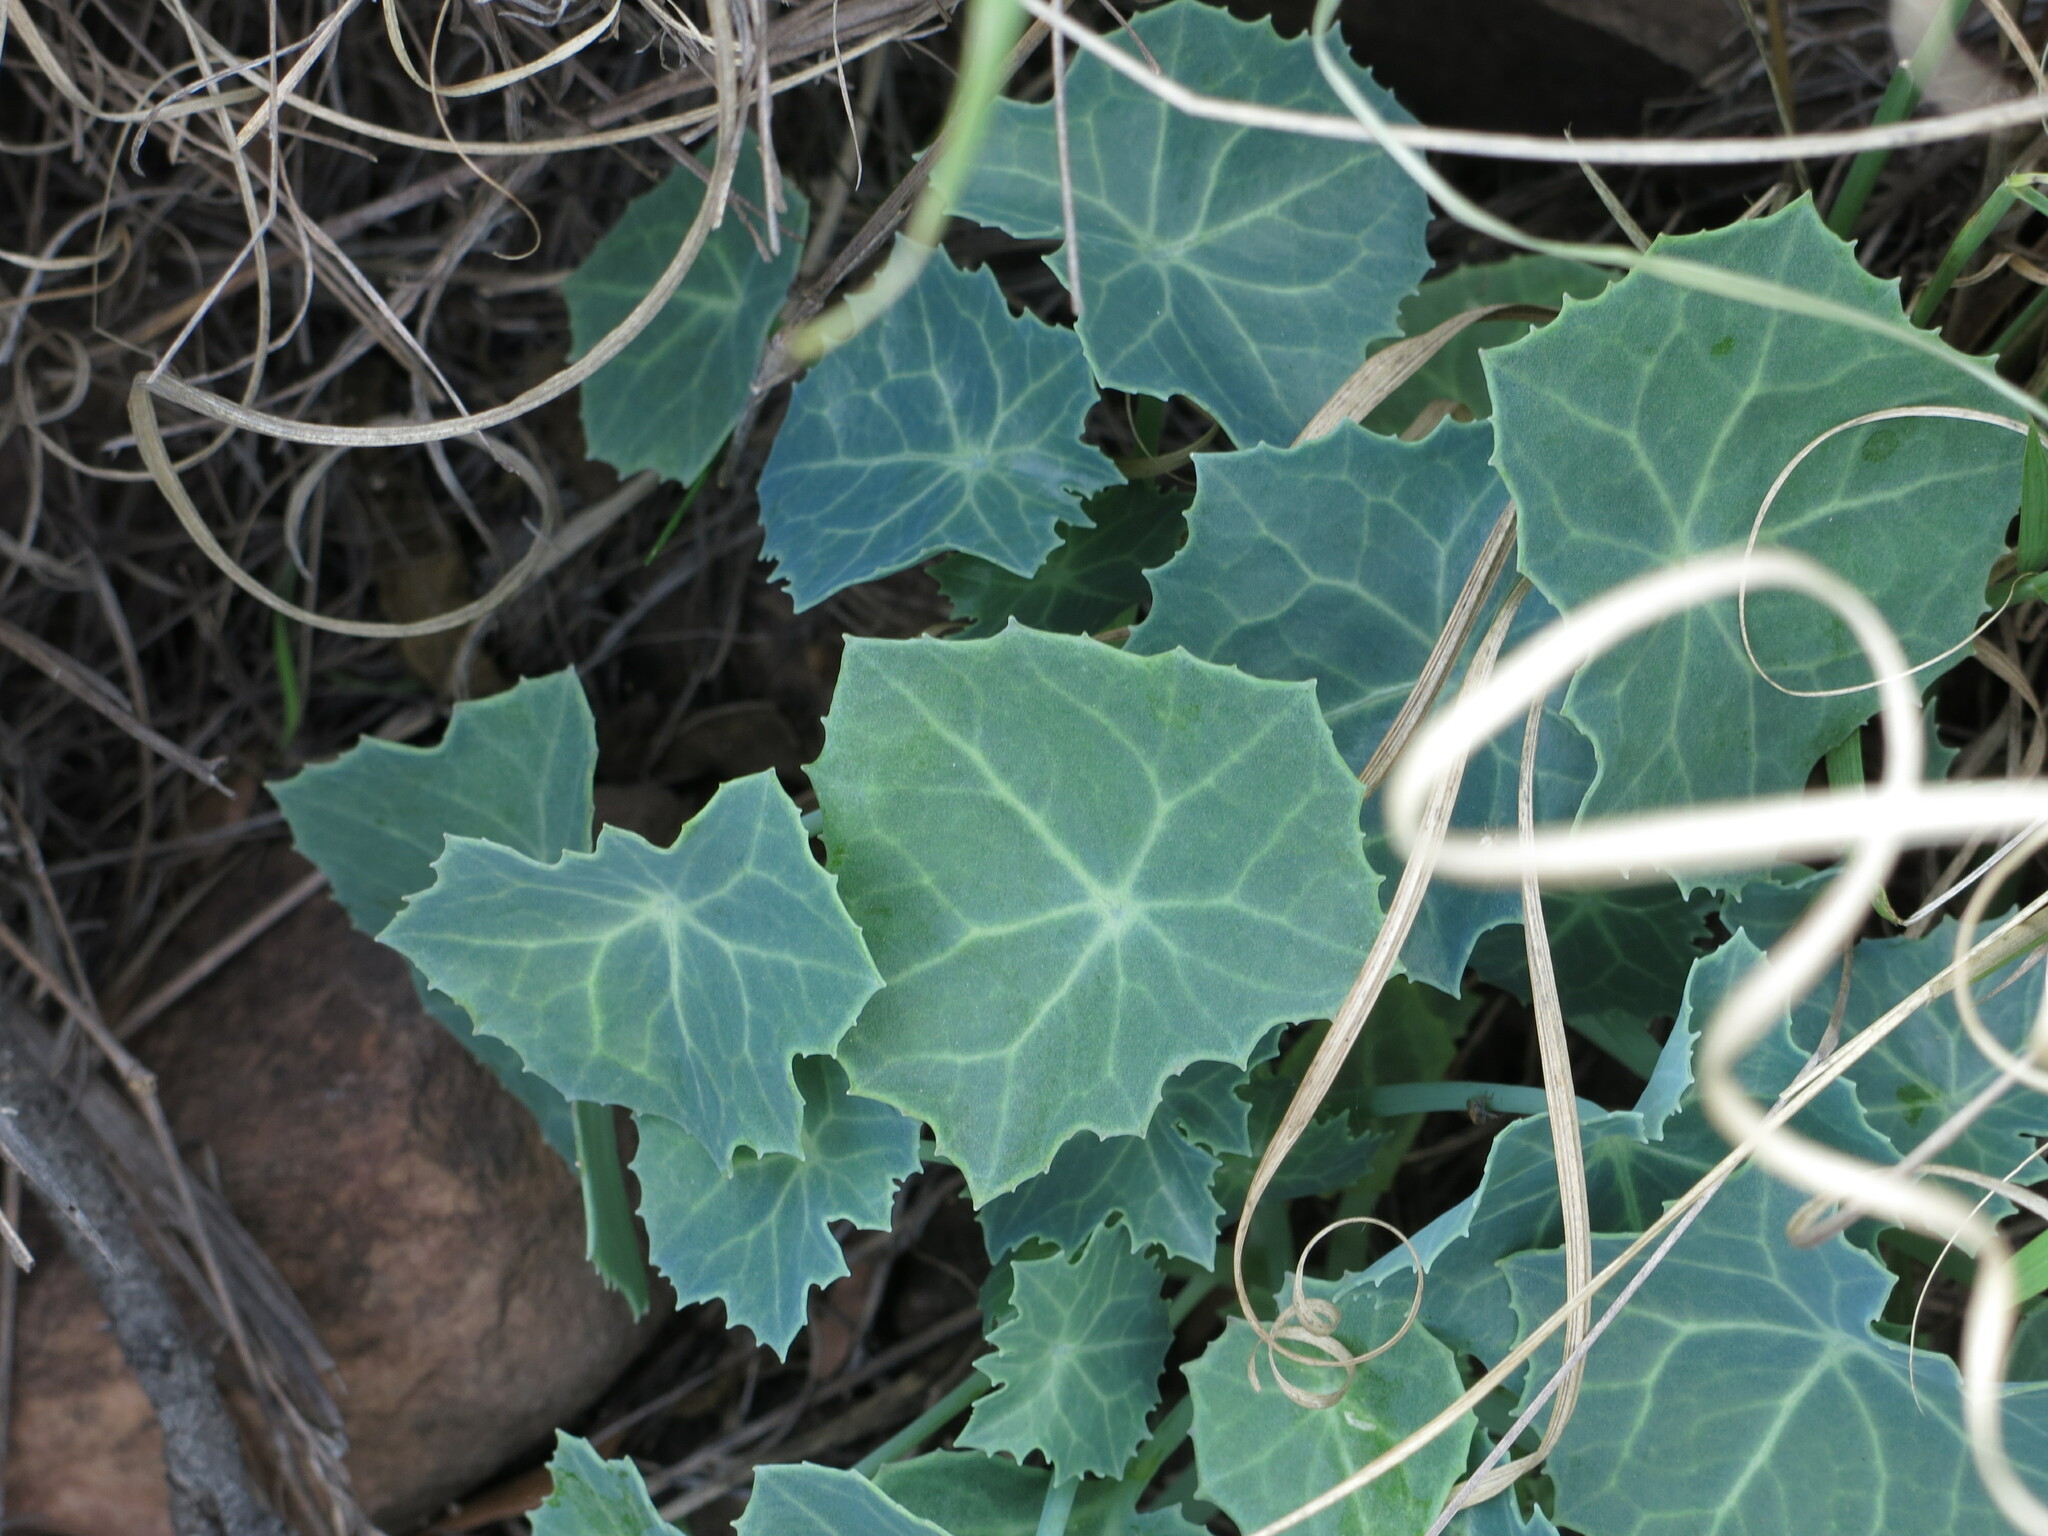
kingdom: Plantae
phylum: Tracheophyta
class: Magnoliopsida
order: Asterales
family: Asteraceae
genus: Senecio
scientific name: Senecio oxyriifolius
